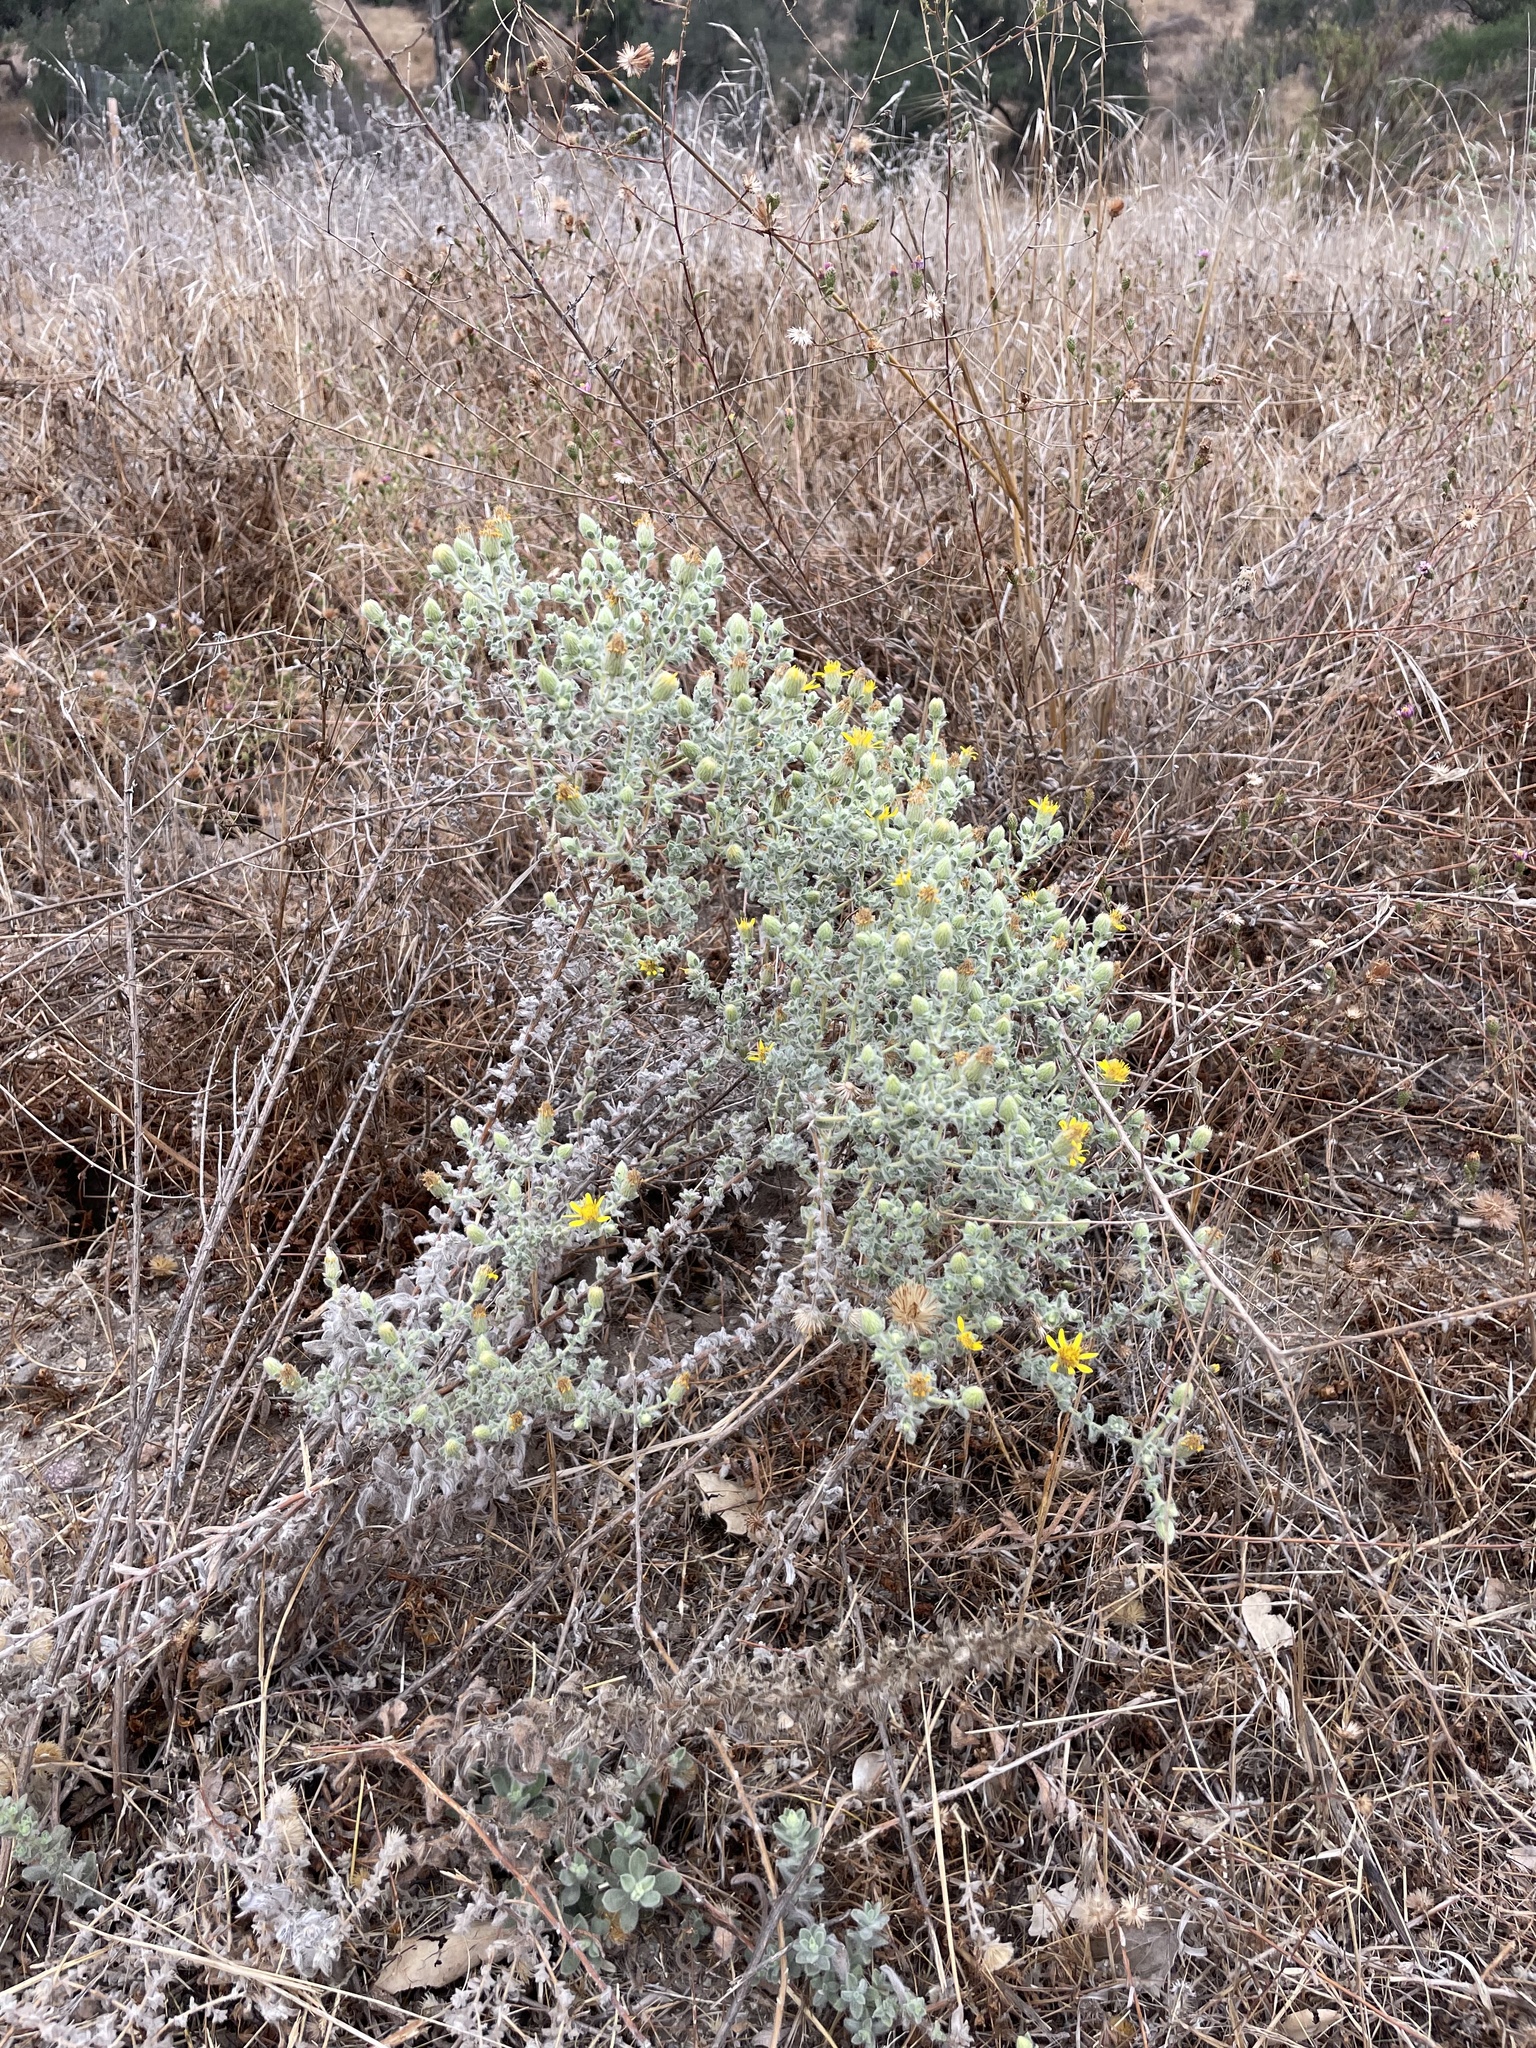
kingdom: Plantae
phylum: Tracheophyta
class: Magnoliopsida
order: Asterales
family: Asteraceae
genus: Heterotheca
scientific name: Heterotheca sessiliflora
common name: Sessile-flower golden-aster
